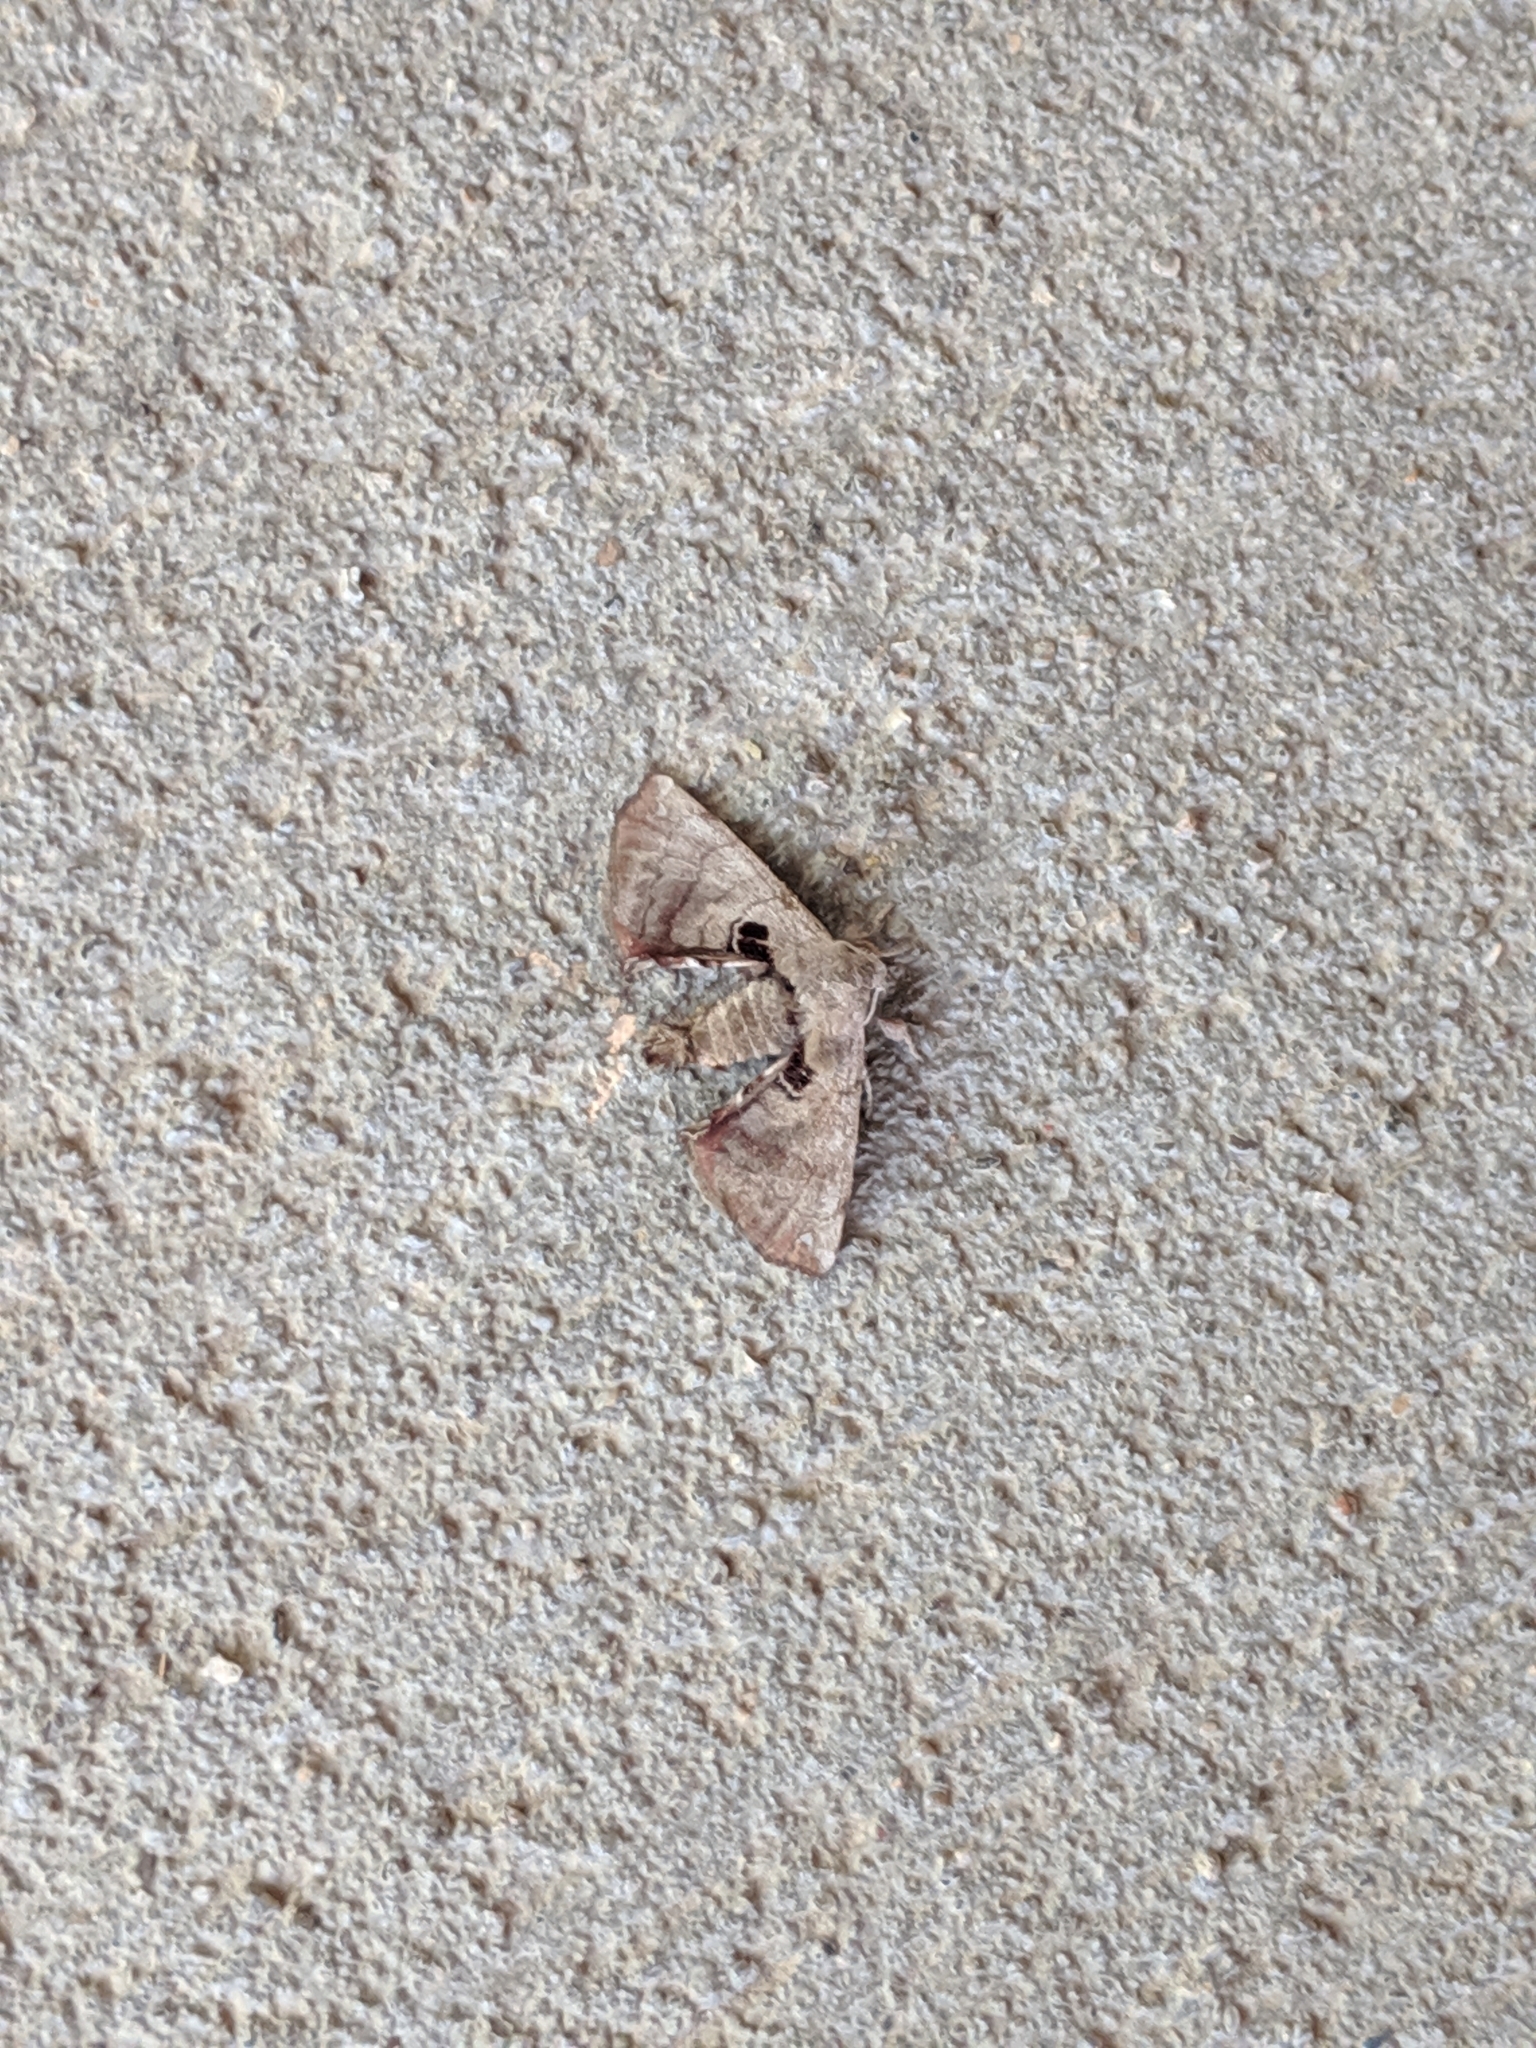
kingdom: Animalia
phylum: Arthropoda
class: Insecta
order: Lepidoptera
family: Apatelodidae
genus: Hygrochroa
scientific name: Hygrochroa Apatelodes torrefacta
